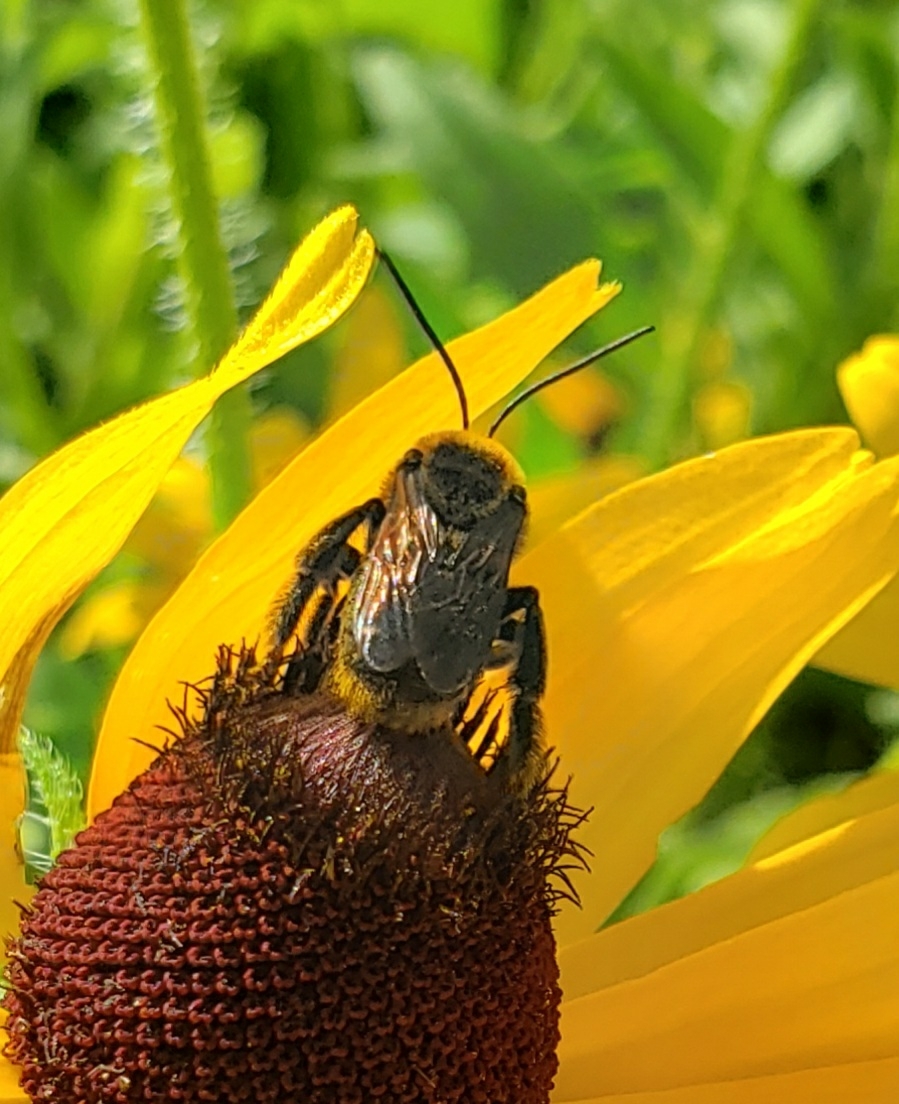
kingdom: Animalia
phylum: Arthropoda
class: Insecta
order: Hymenoptera
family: Apidae
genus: Svastra
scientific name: Svastra obliqua
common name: Oblique longhorn
